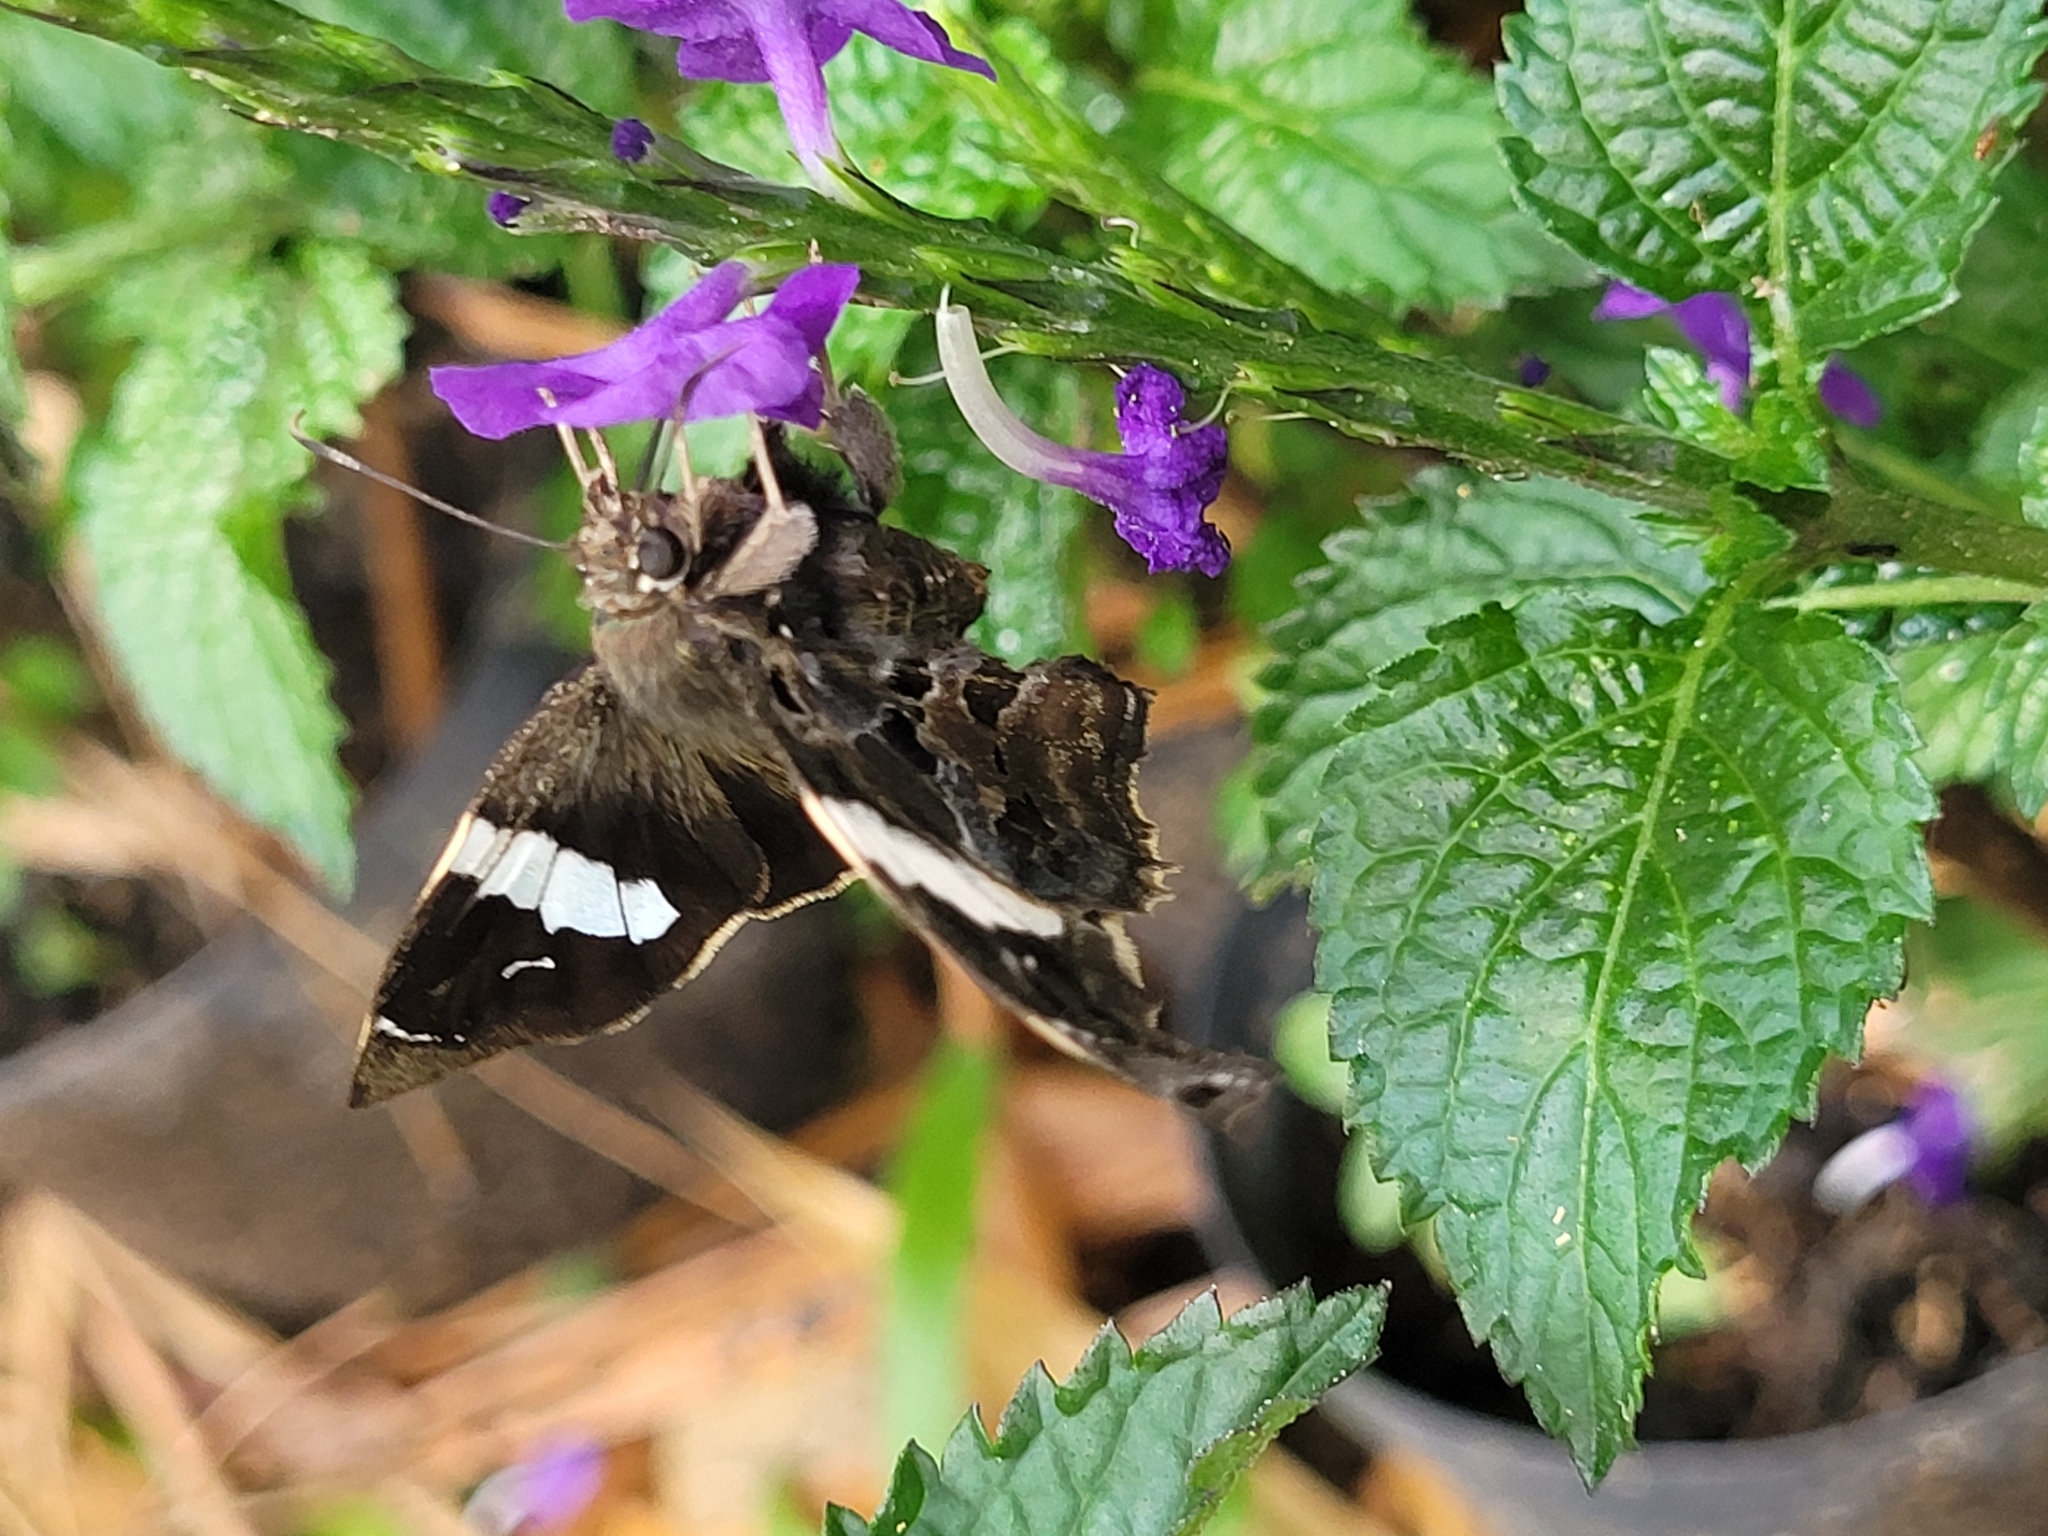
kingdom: Animalia
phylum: Arthropoda
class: Insecta
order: Lepidoptera
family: Hesperiidae
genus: Spathilepia
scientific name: Spathilepia clonius
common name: Falcate skipper
